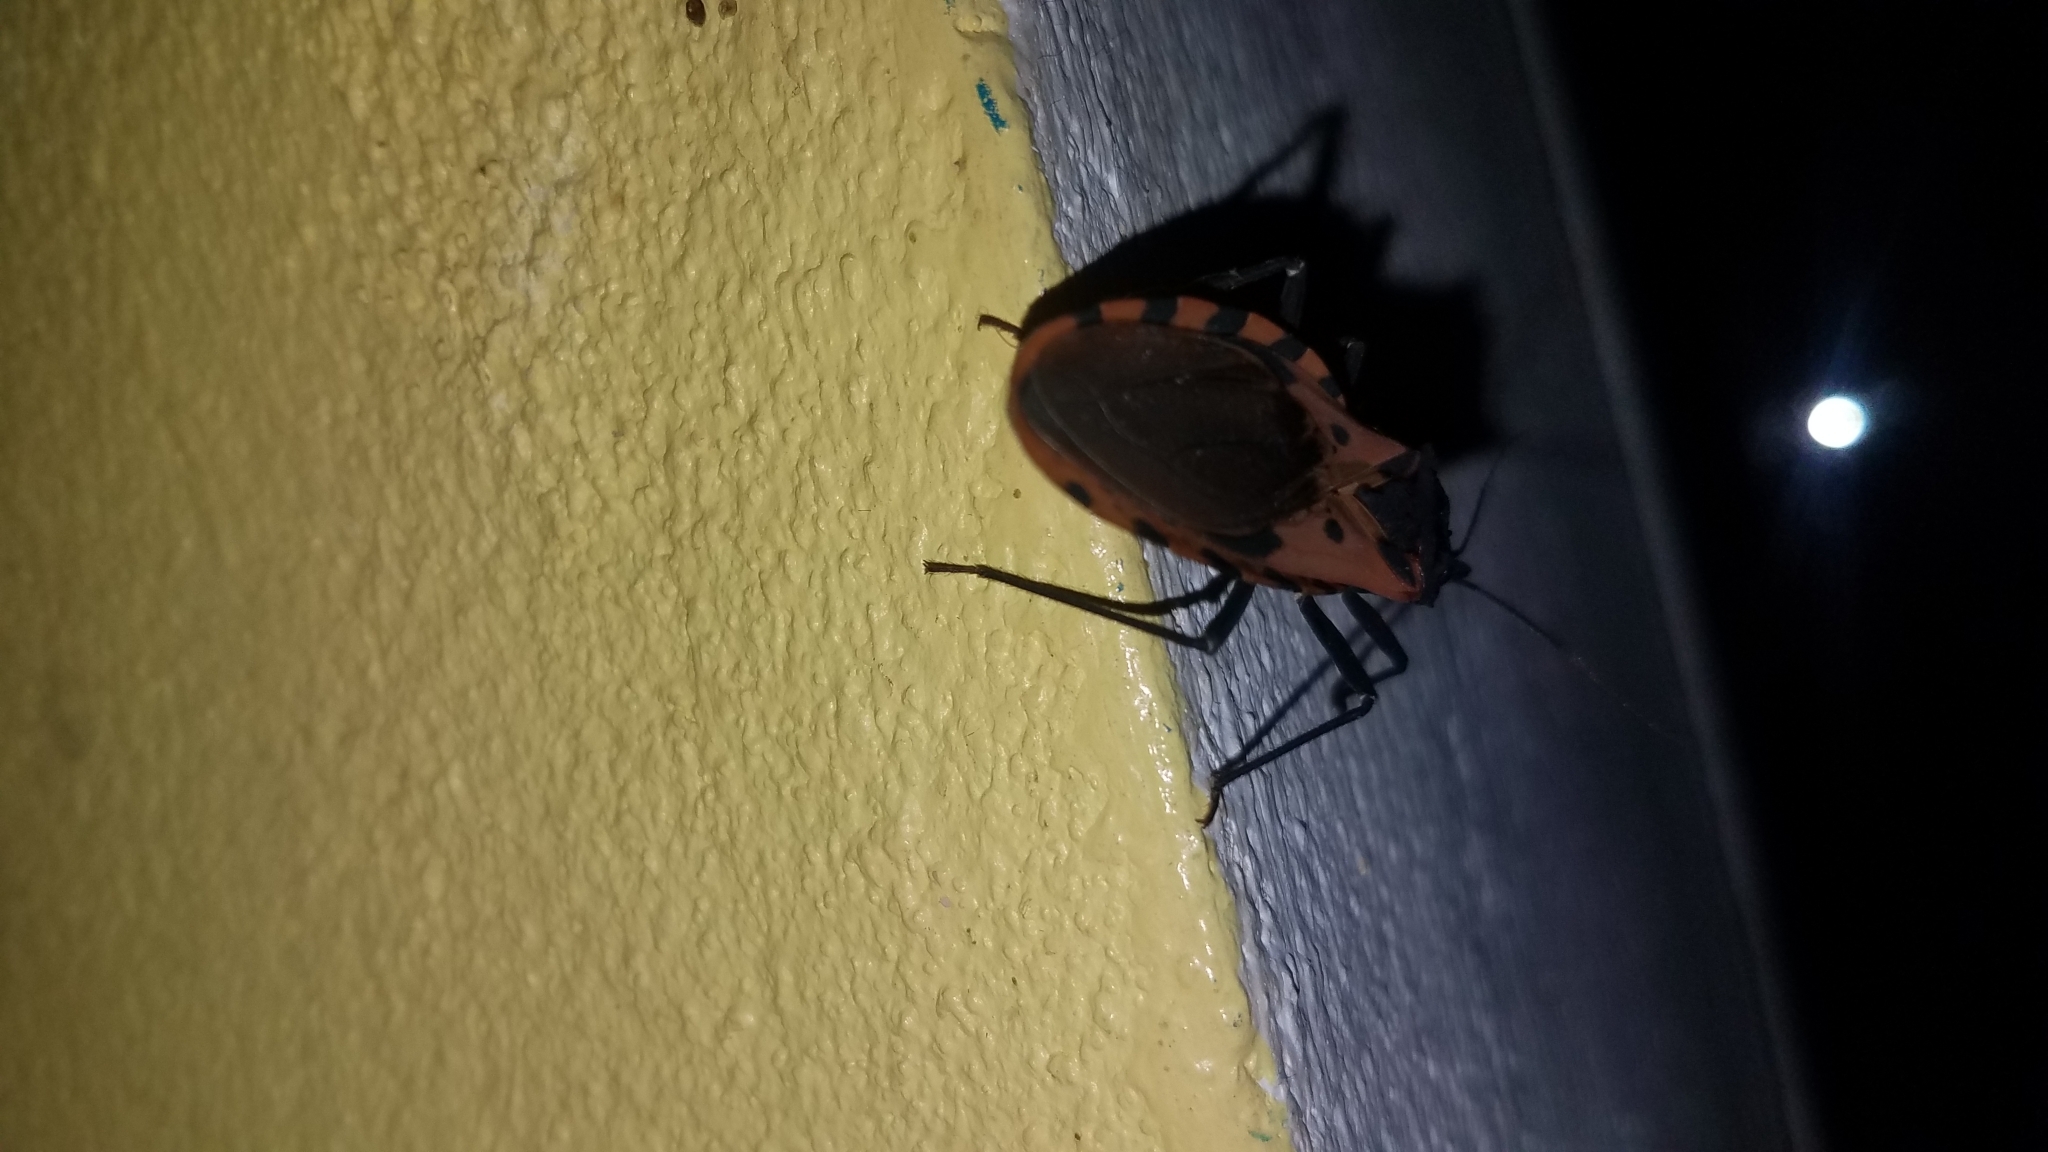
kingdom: Animalia
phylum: Arthropoda
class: Insecta
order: Hemiptera
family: Reduviidae
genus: Meccus
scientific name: Meccus dimidiatus
